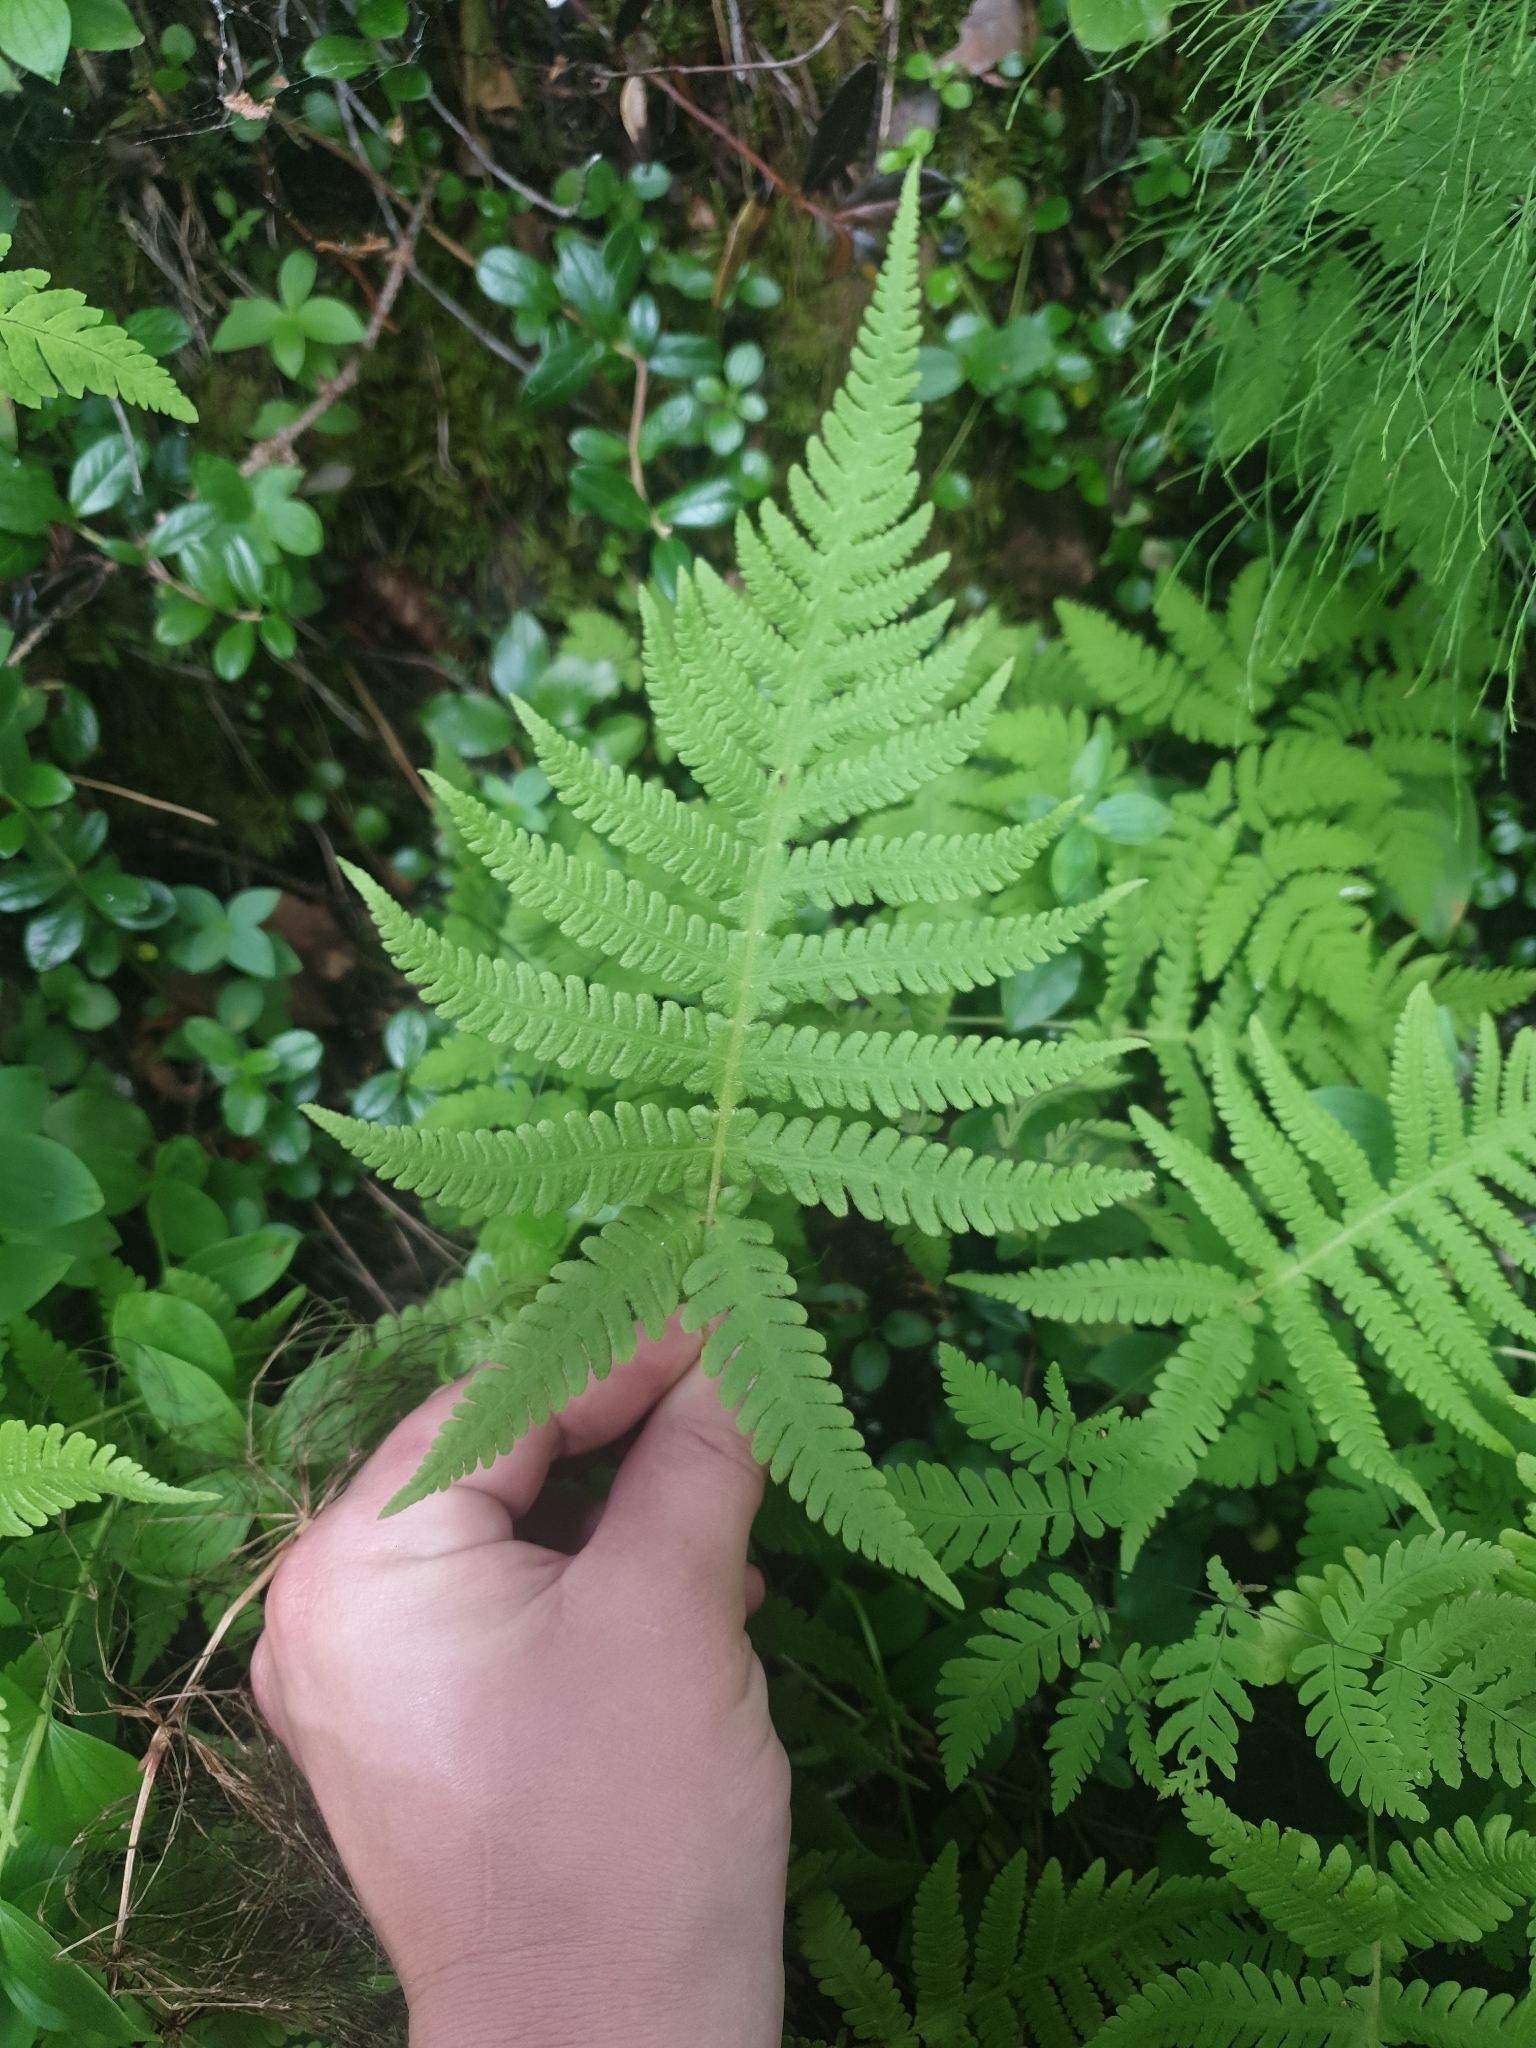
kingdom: Plantae
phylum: Tracheophyta
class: Polypodiopsida
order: Polypodiales
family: Thelypteridaceae
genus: Phegopteris
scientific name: Phegopteris connectilis
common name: Beech fern
